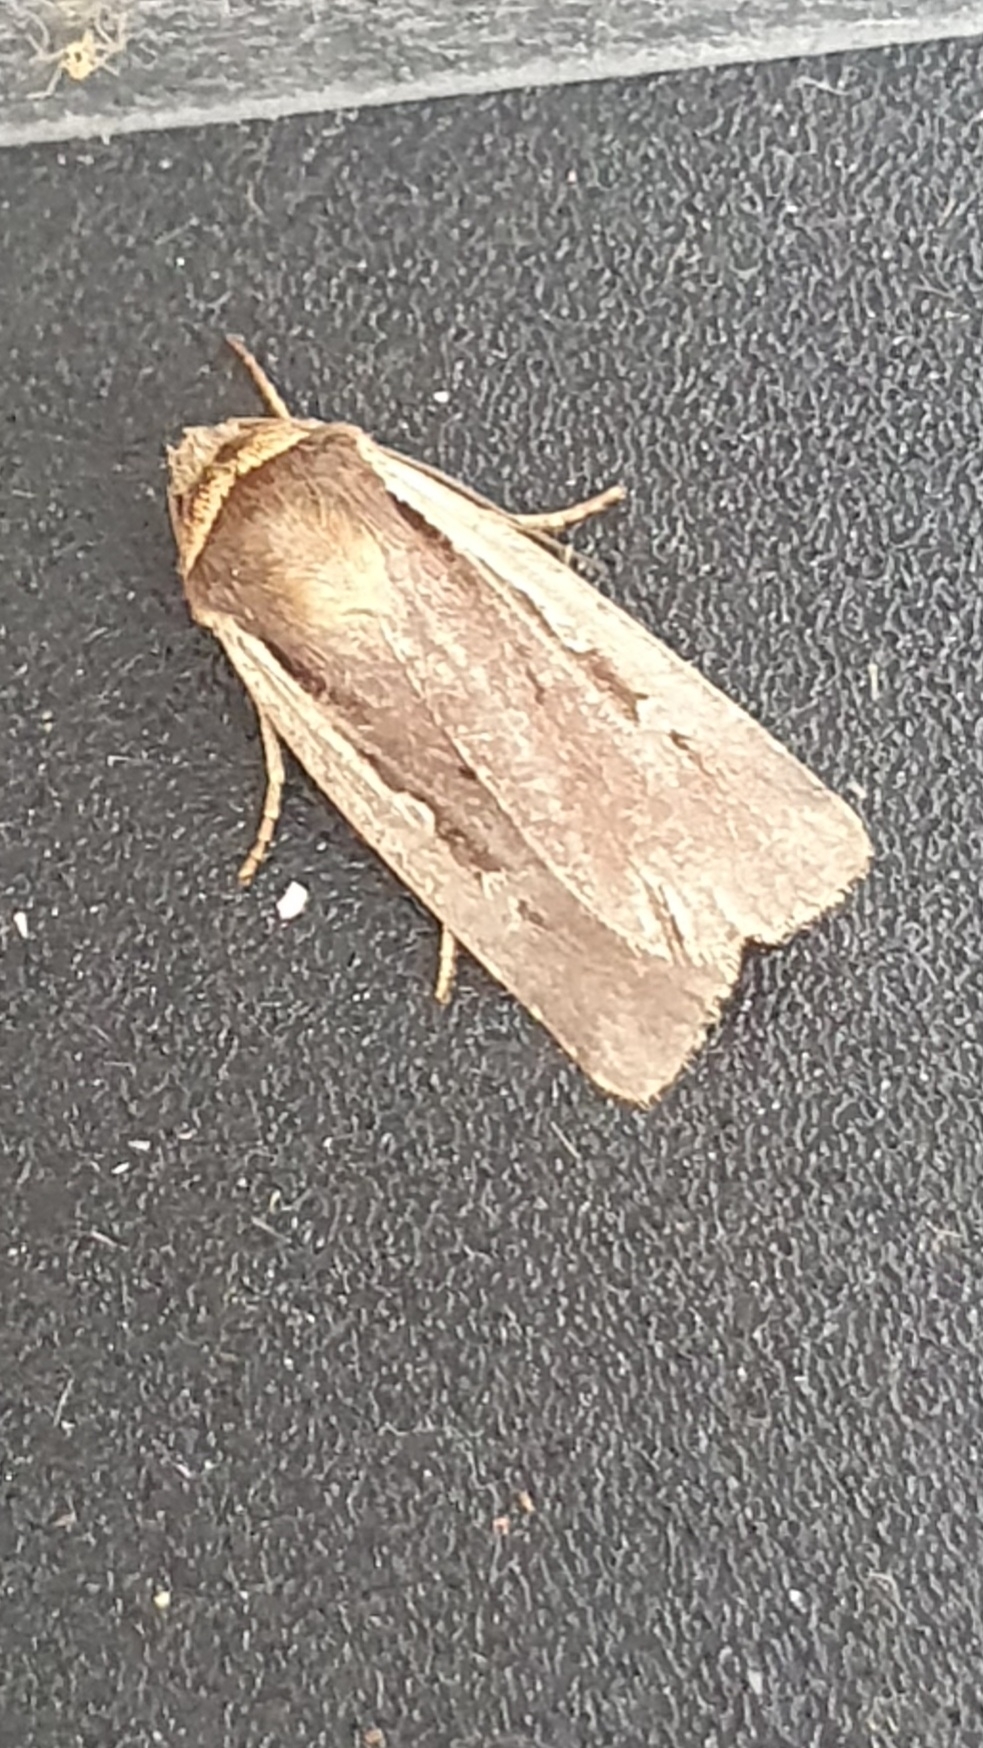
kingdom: Animalia
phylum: Arthropoda
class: Insecta
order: Lepidoptera
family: Noctuidae
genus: Ochropleura
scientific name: Ochropleura plecta
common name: Flame shoulder
